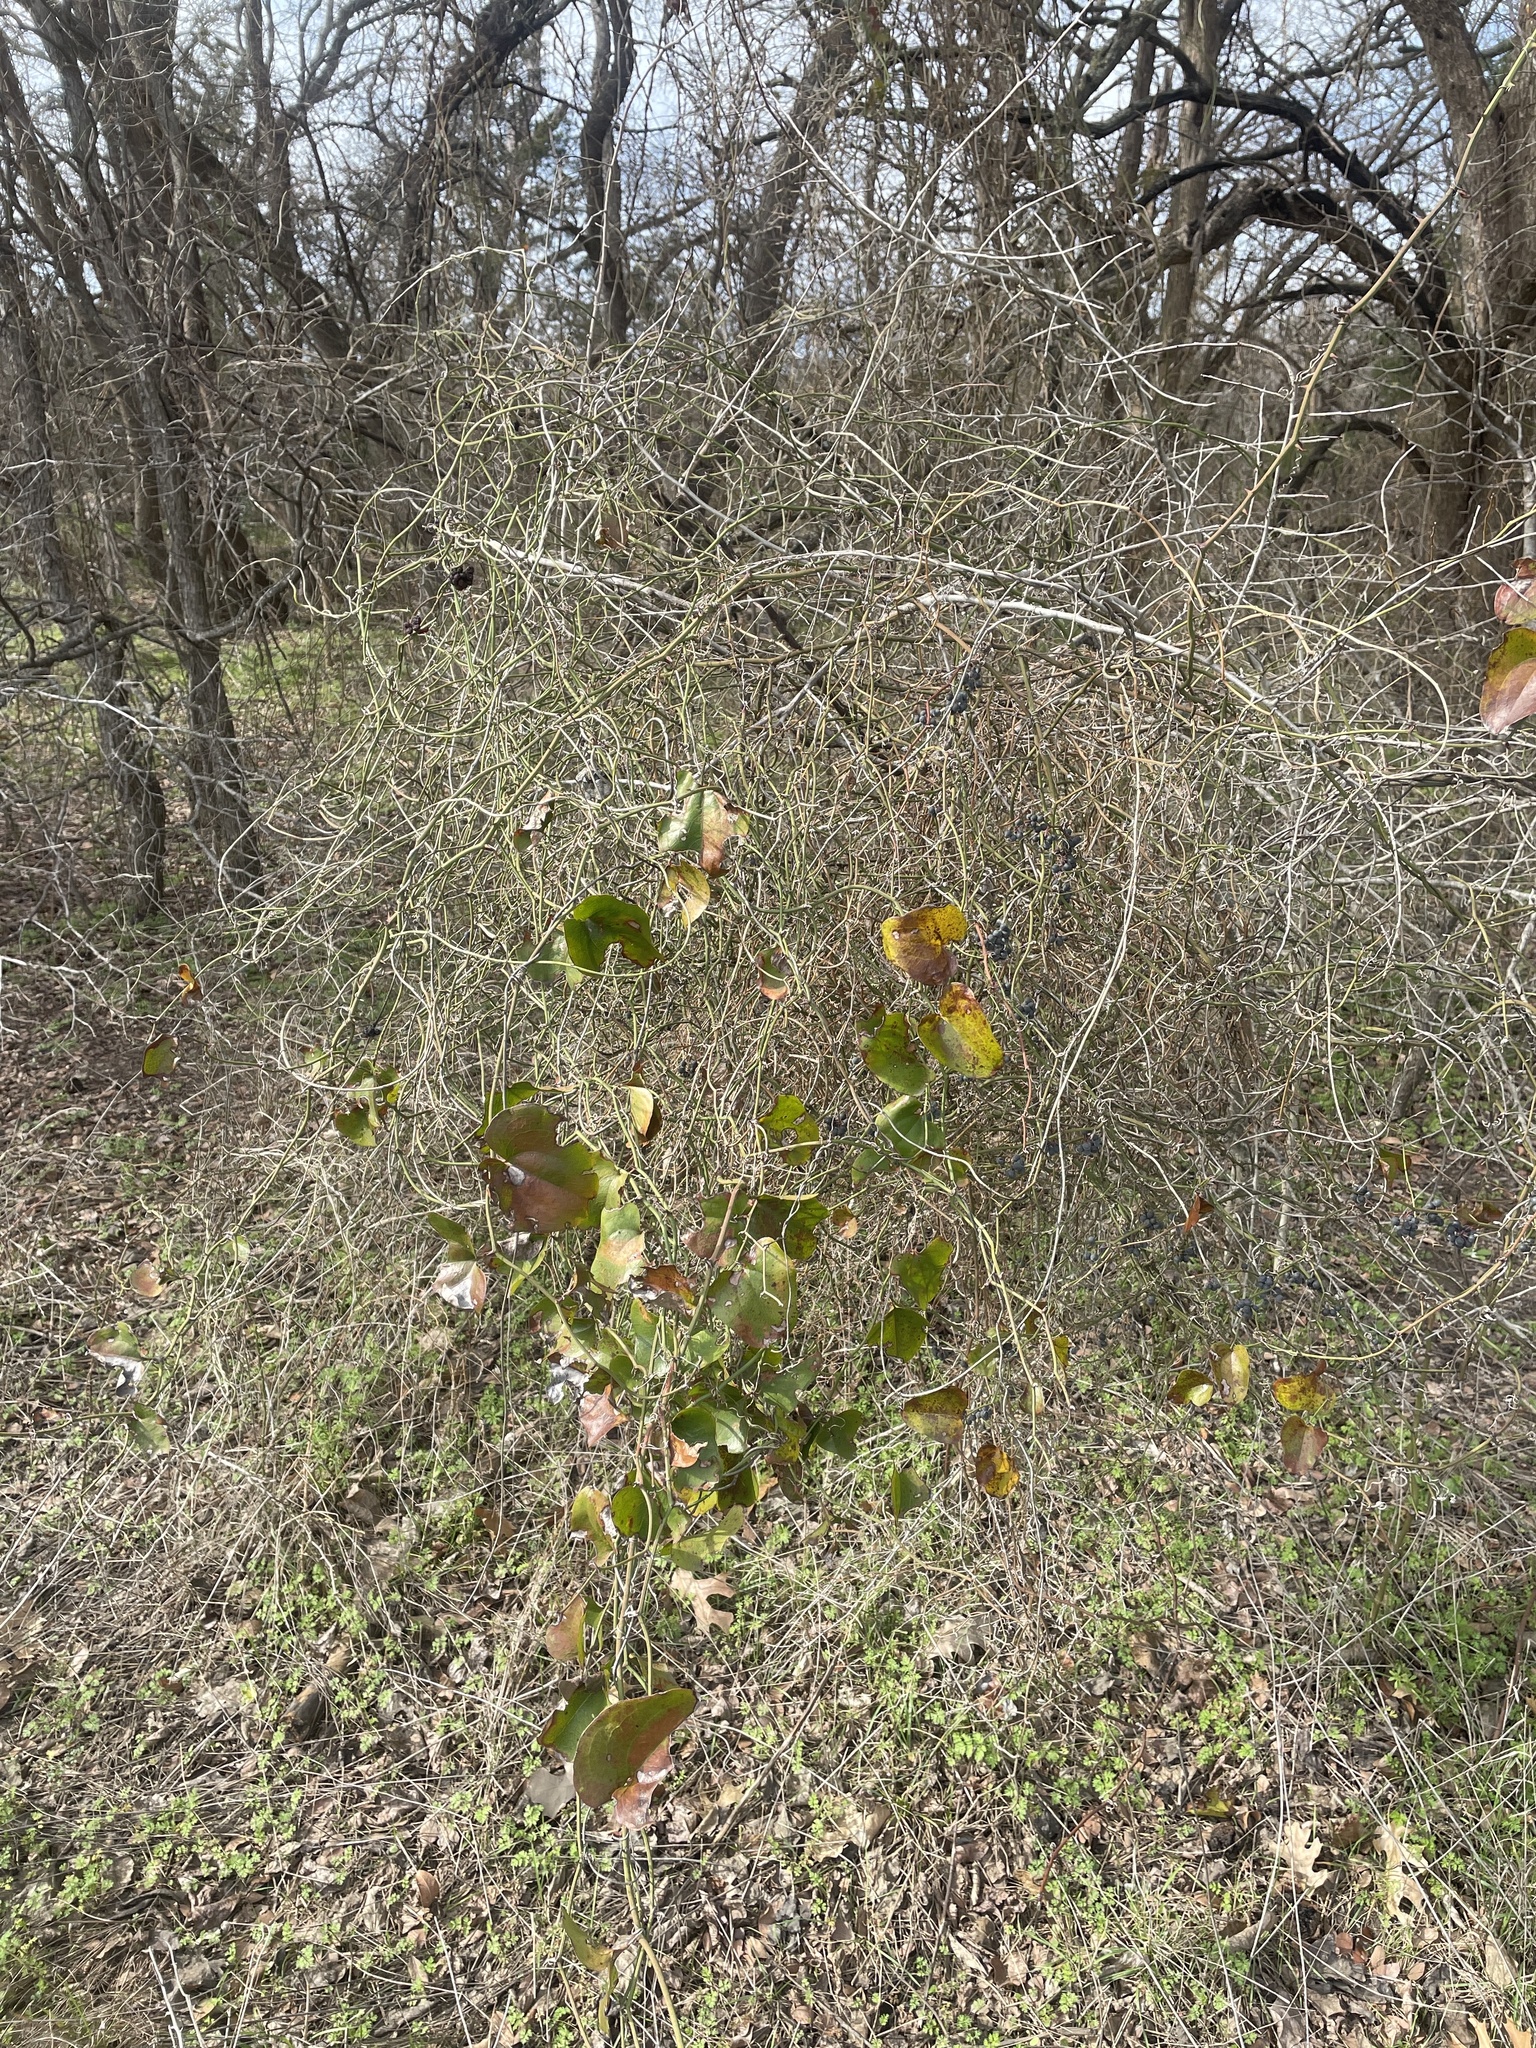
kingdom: Plantae
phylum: Tracheophyta
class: Liliopsida
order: Liliales
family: Smilacaceae
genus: Smilax
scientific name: Smilax bona-nox
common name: Catbrier
